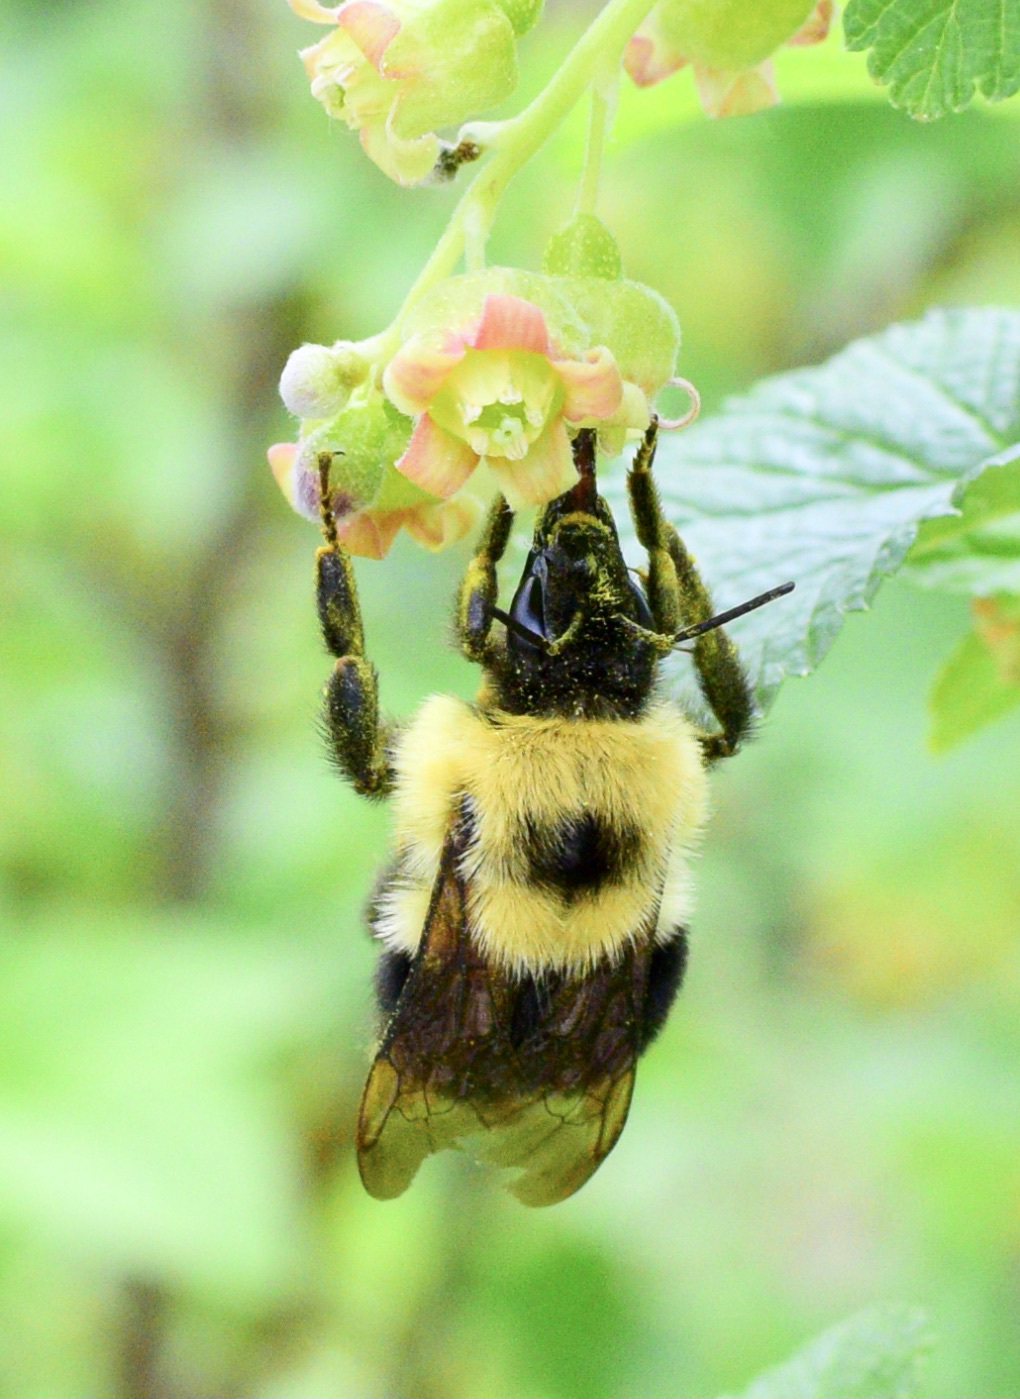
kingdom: Animalia
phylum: Arthropoda
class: Insecta
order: Hymenoptera
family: Apidae
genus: Bombus
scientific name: Bombus bimaculatus
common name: Two-spotted bumble bee
